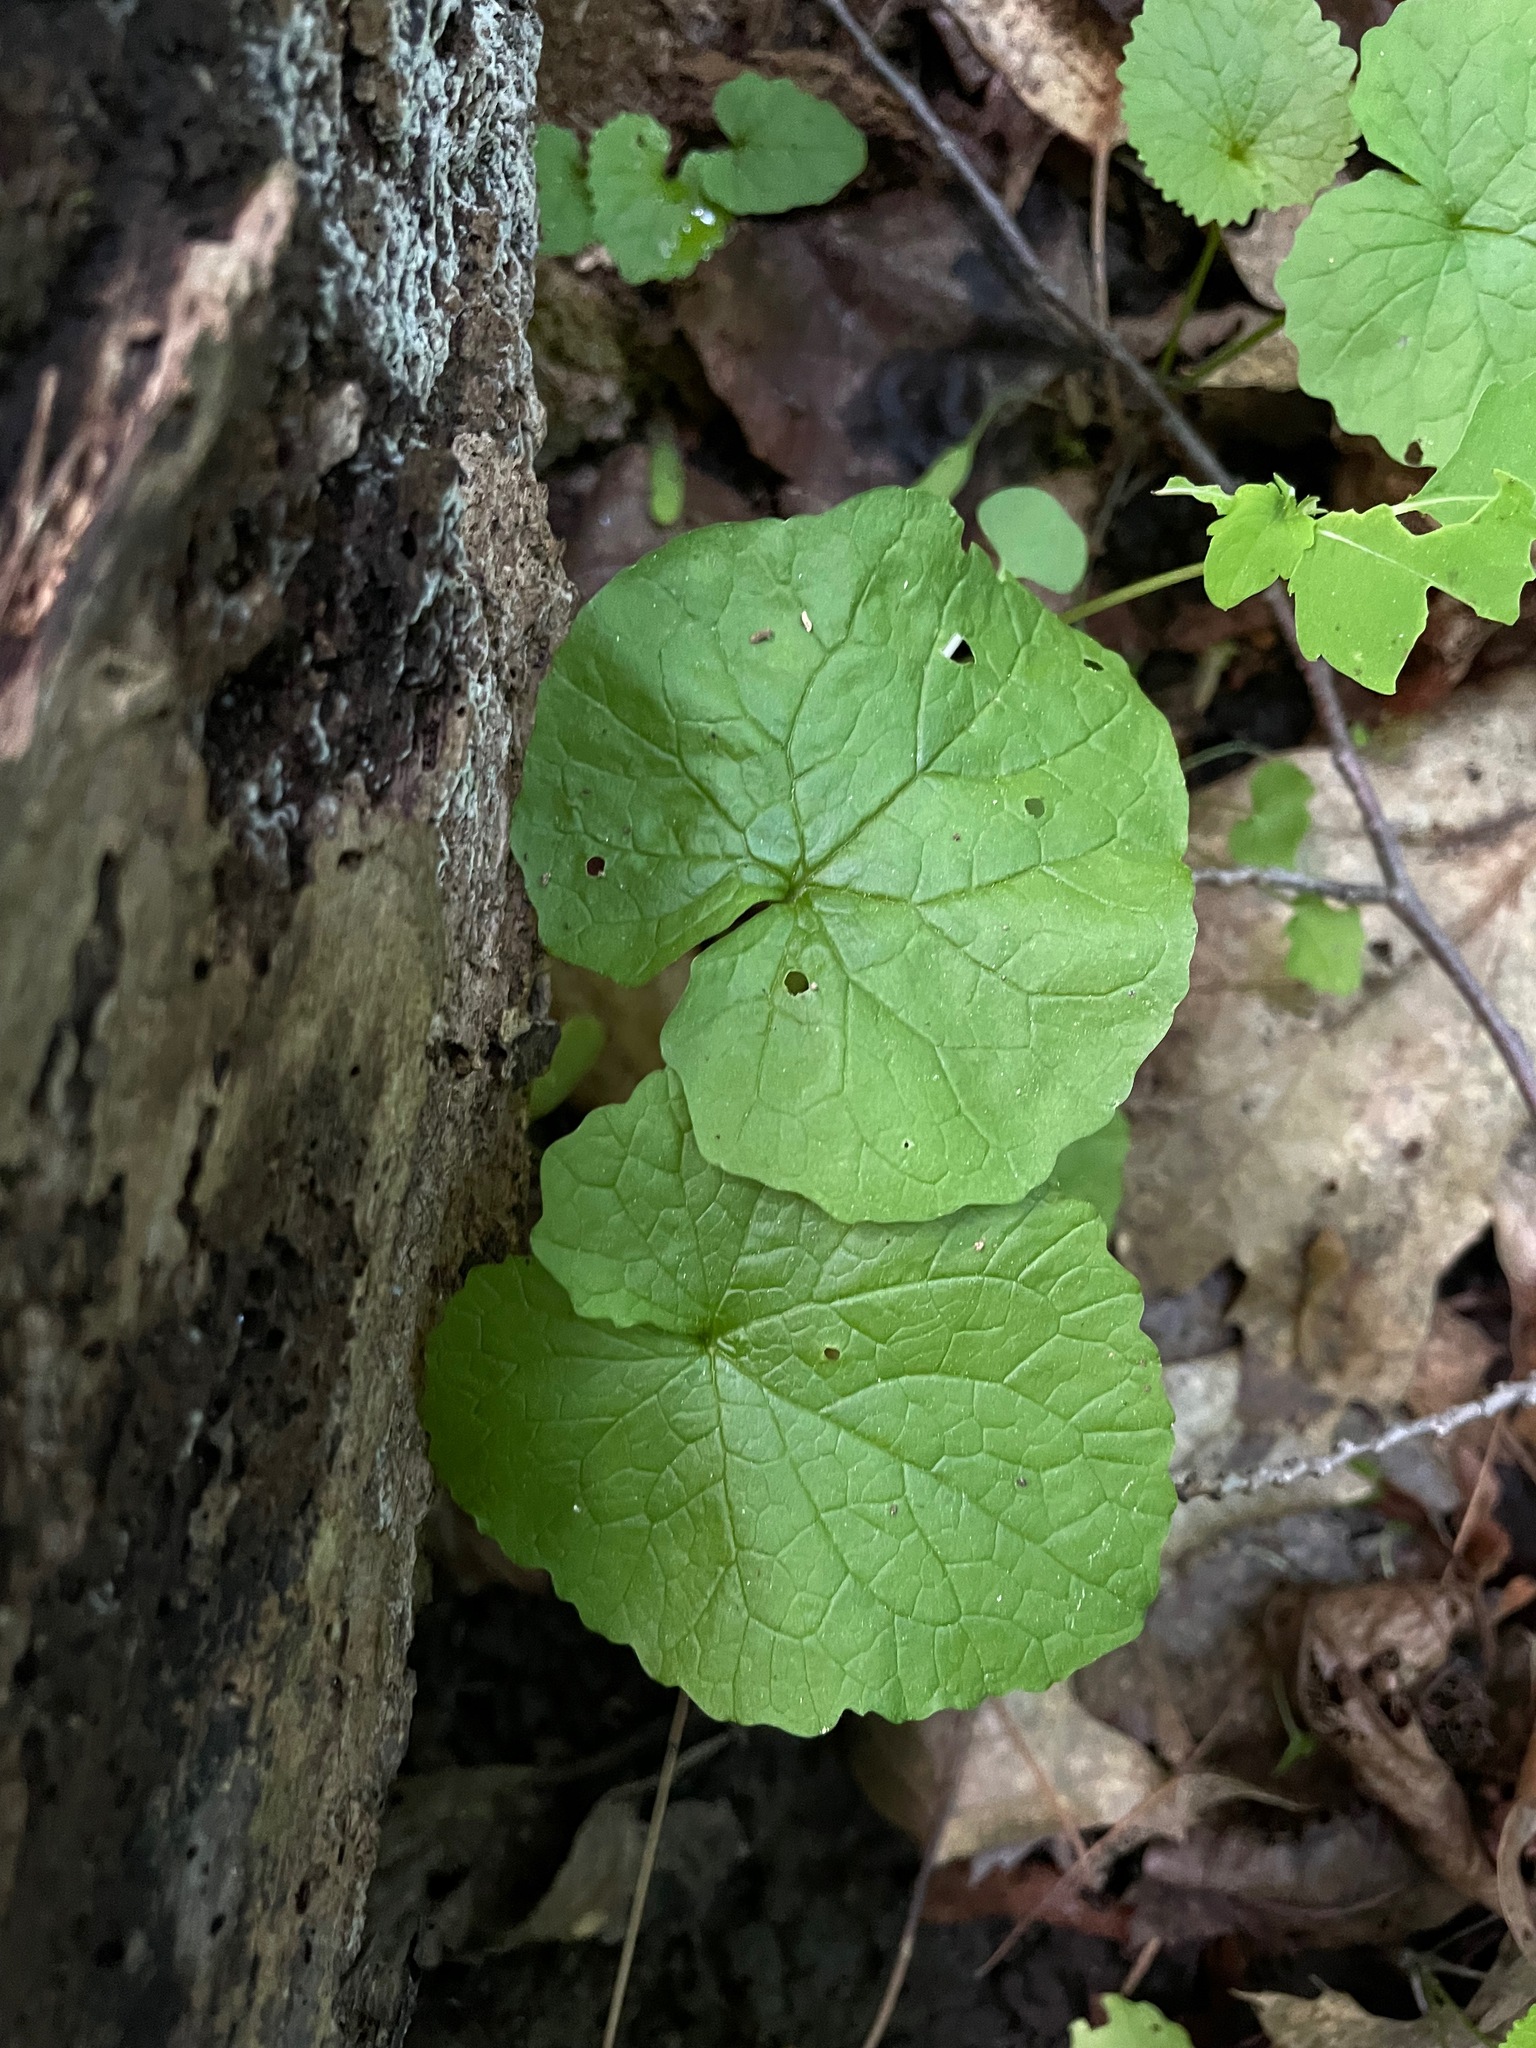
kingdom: Plantae
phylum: Tracheophyta
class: Magnoliopsida
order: Brassicales
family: Brassicaceae
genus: Alliaria
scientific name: Alliaria petiolata
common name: Garlic mustard
